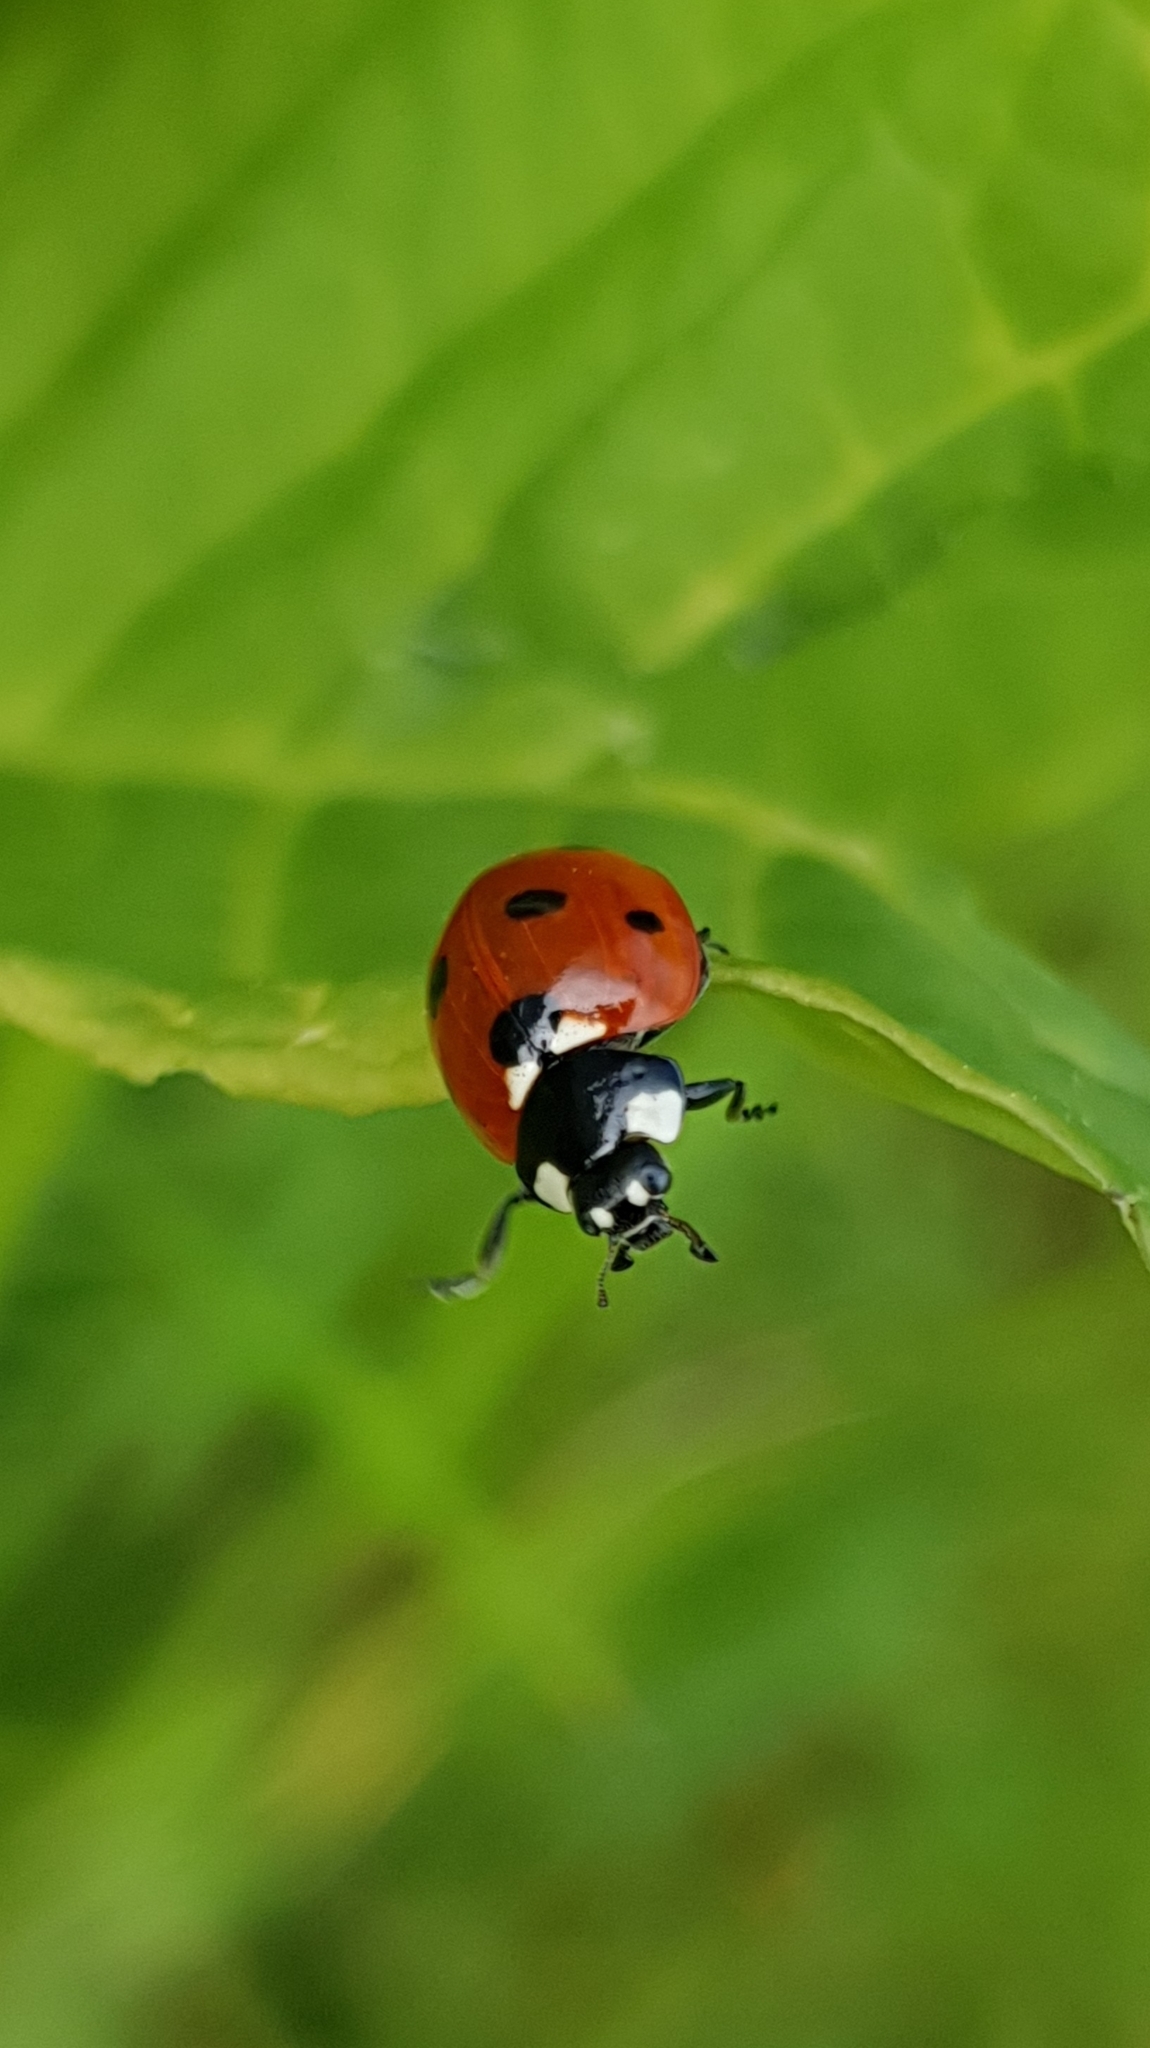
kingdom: Animalia
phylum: Arthropoda
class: Insecta
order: Coleoptera
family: Coccinellidae
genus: Coccinella
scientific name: Coccinella septempunctata
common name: Sevenspotted lady beetle
